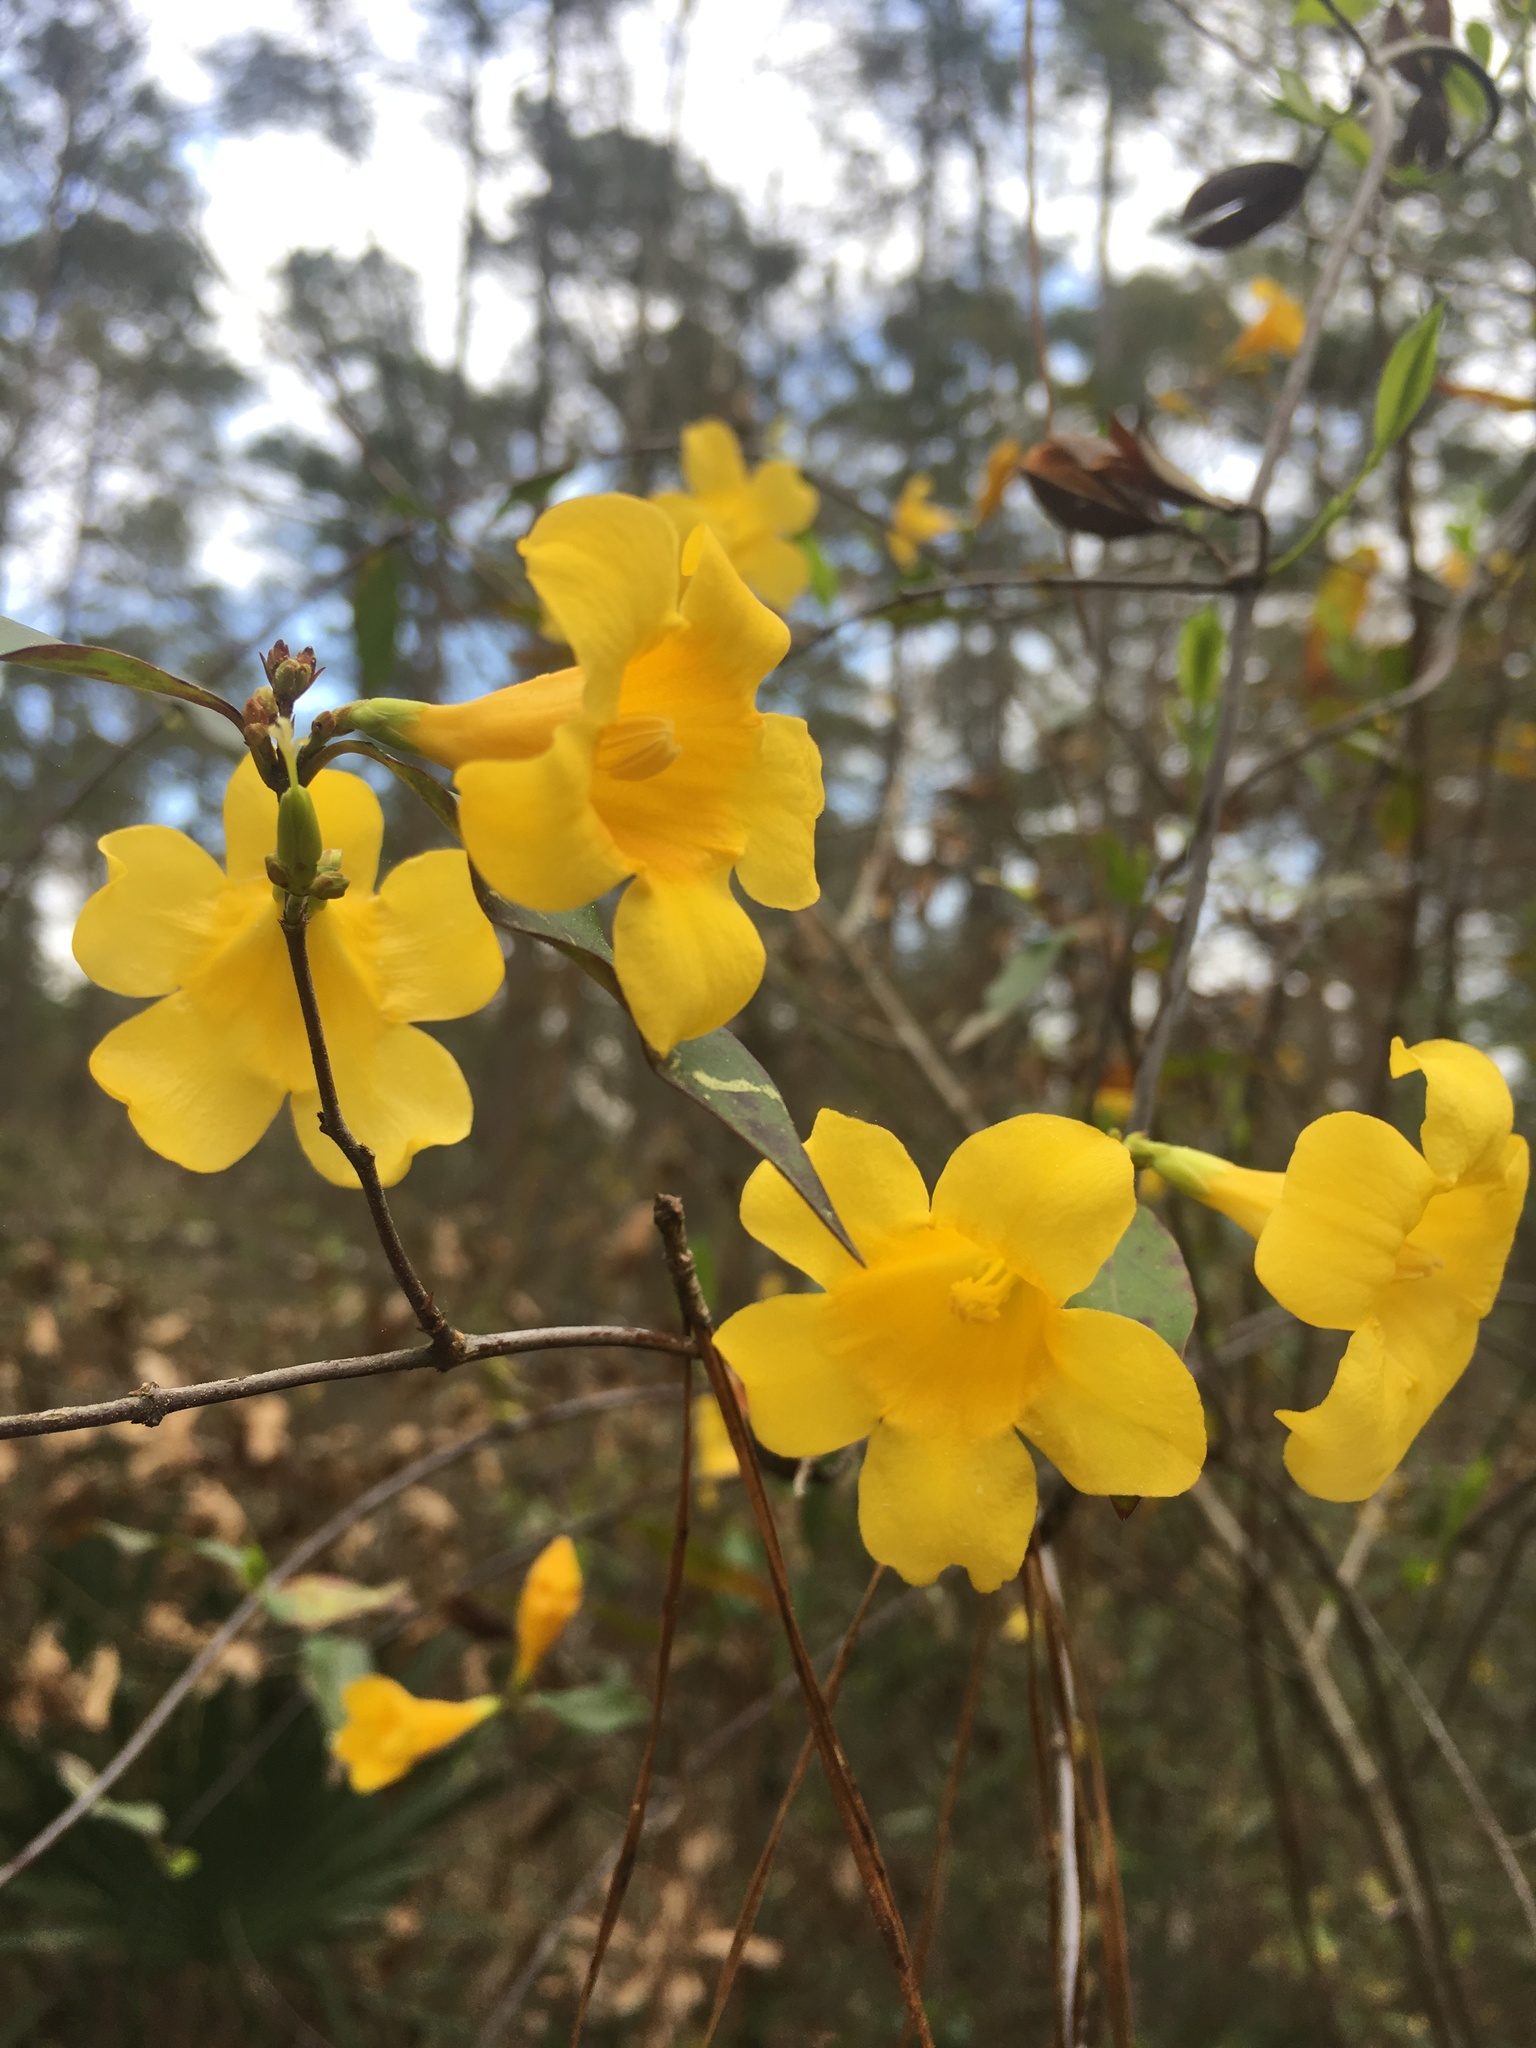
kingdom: Plantae
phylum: Tracheophyta
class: Magnoliopsida
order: Gentianales
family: Gelsemiaceae
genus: Gelsemium
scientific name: Gelsemium sempervirens
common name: Carolina-jasmine
